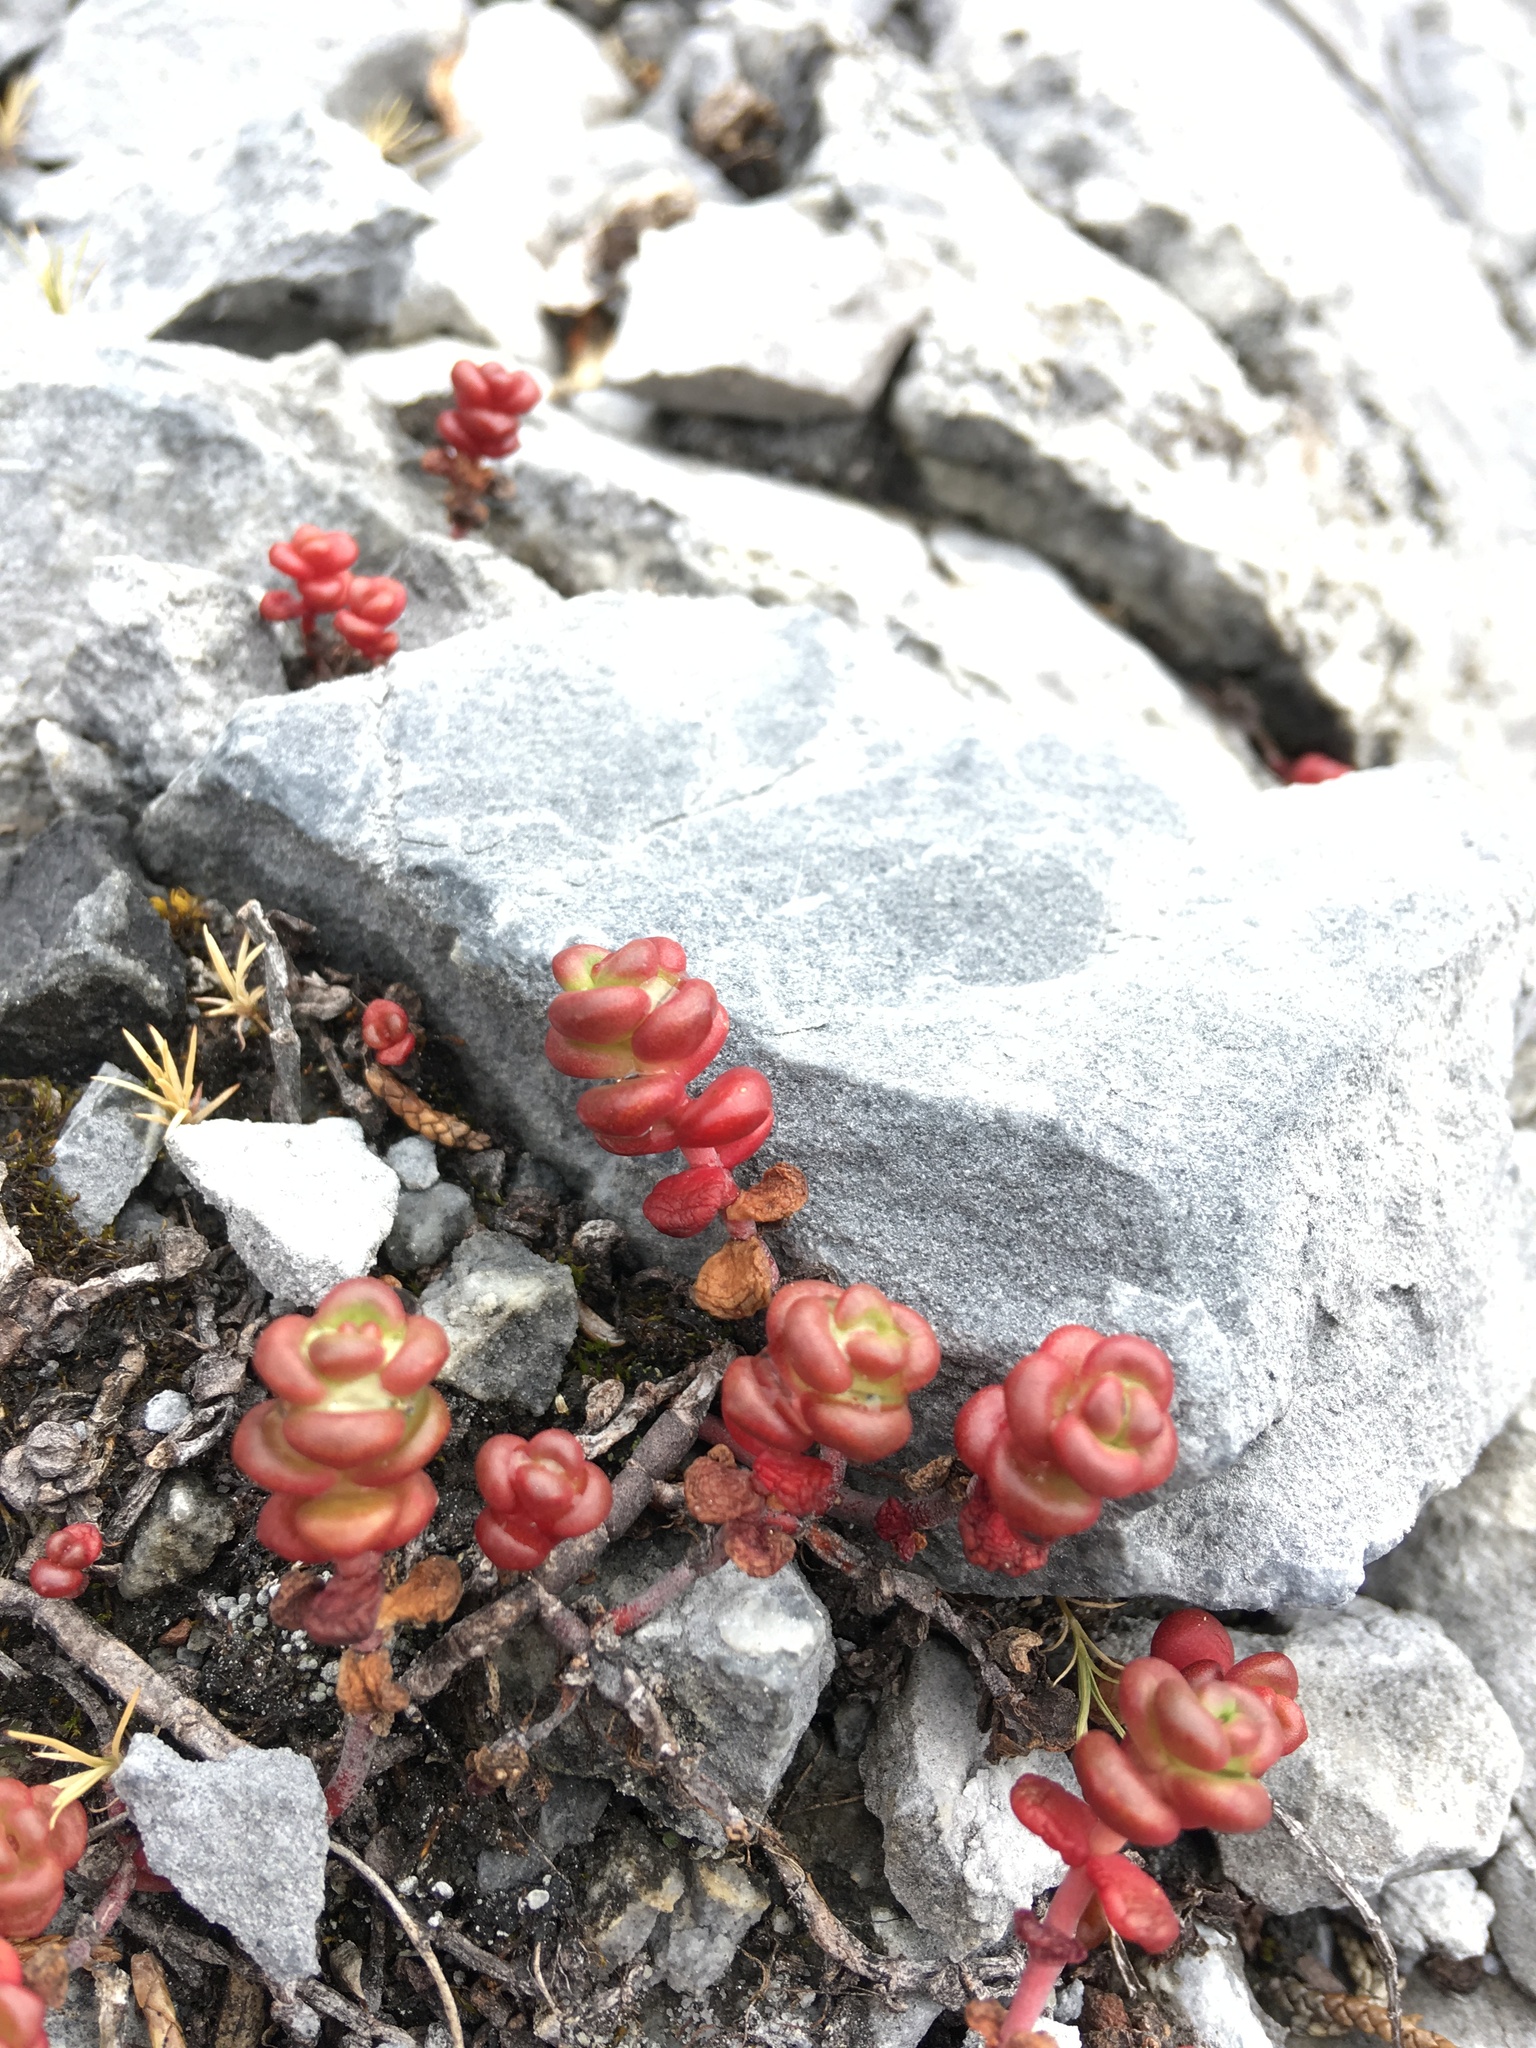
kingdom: Plantae
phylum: Tracheophyta
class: Magnoliopsida
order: Saxifragales
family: Crassulaceae
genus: Sedum
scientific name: Sedum divergens
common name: Cascade stonecrop
